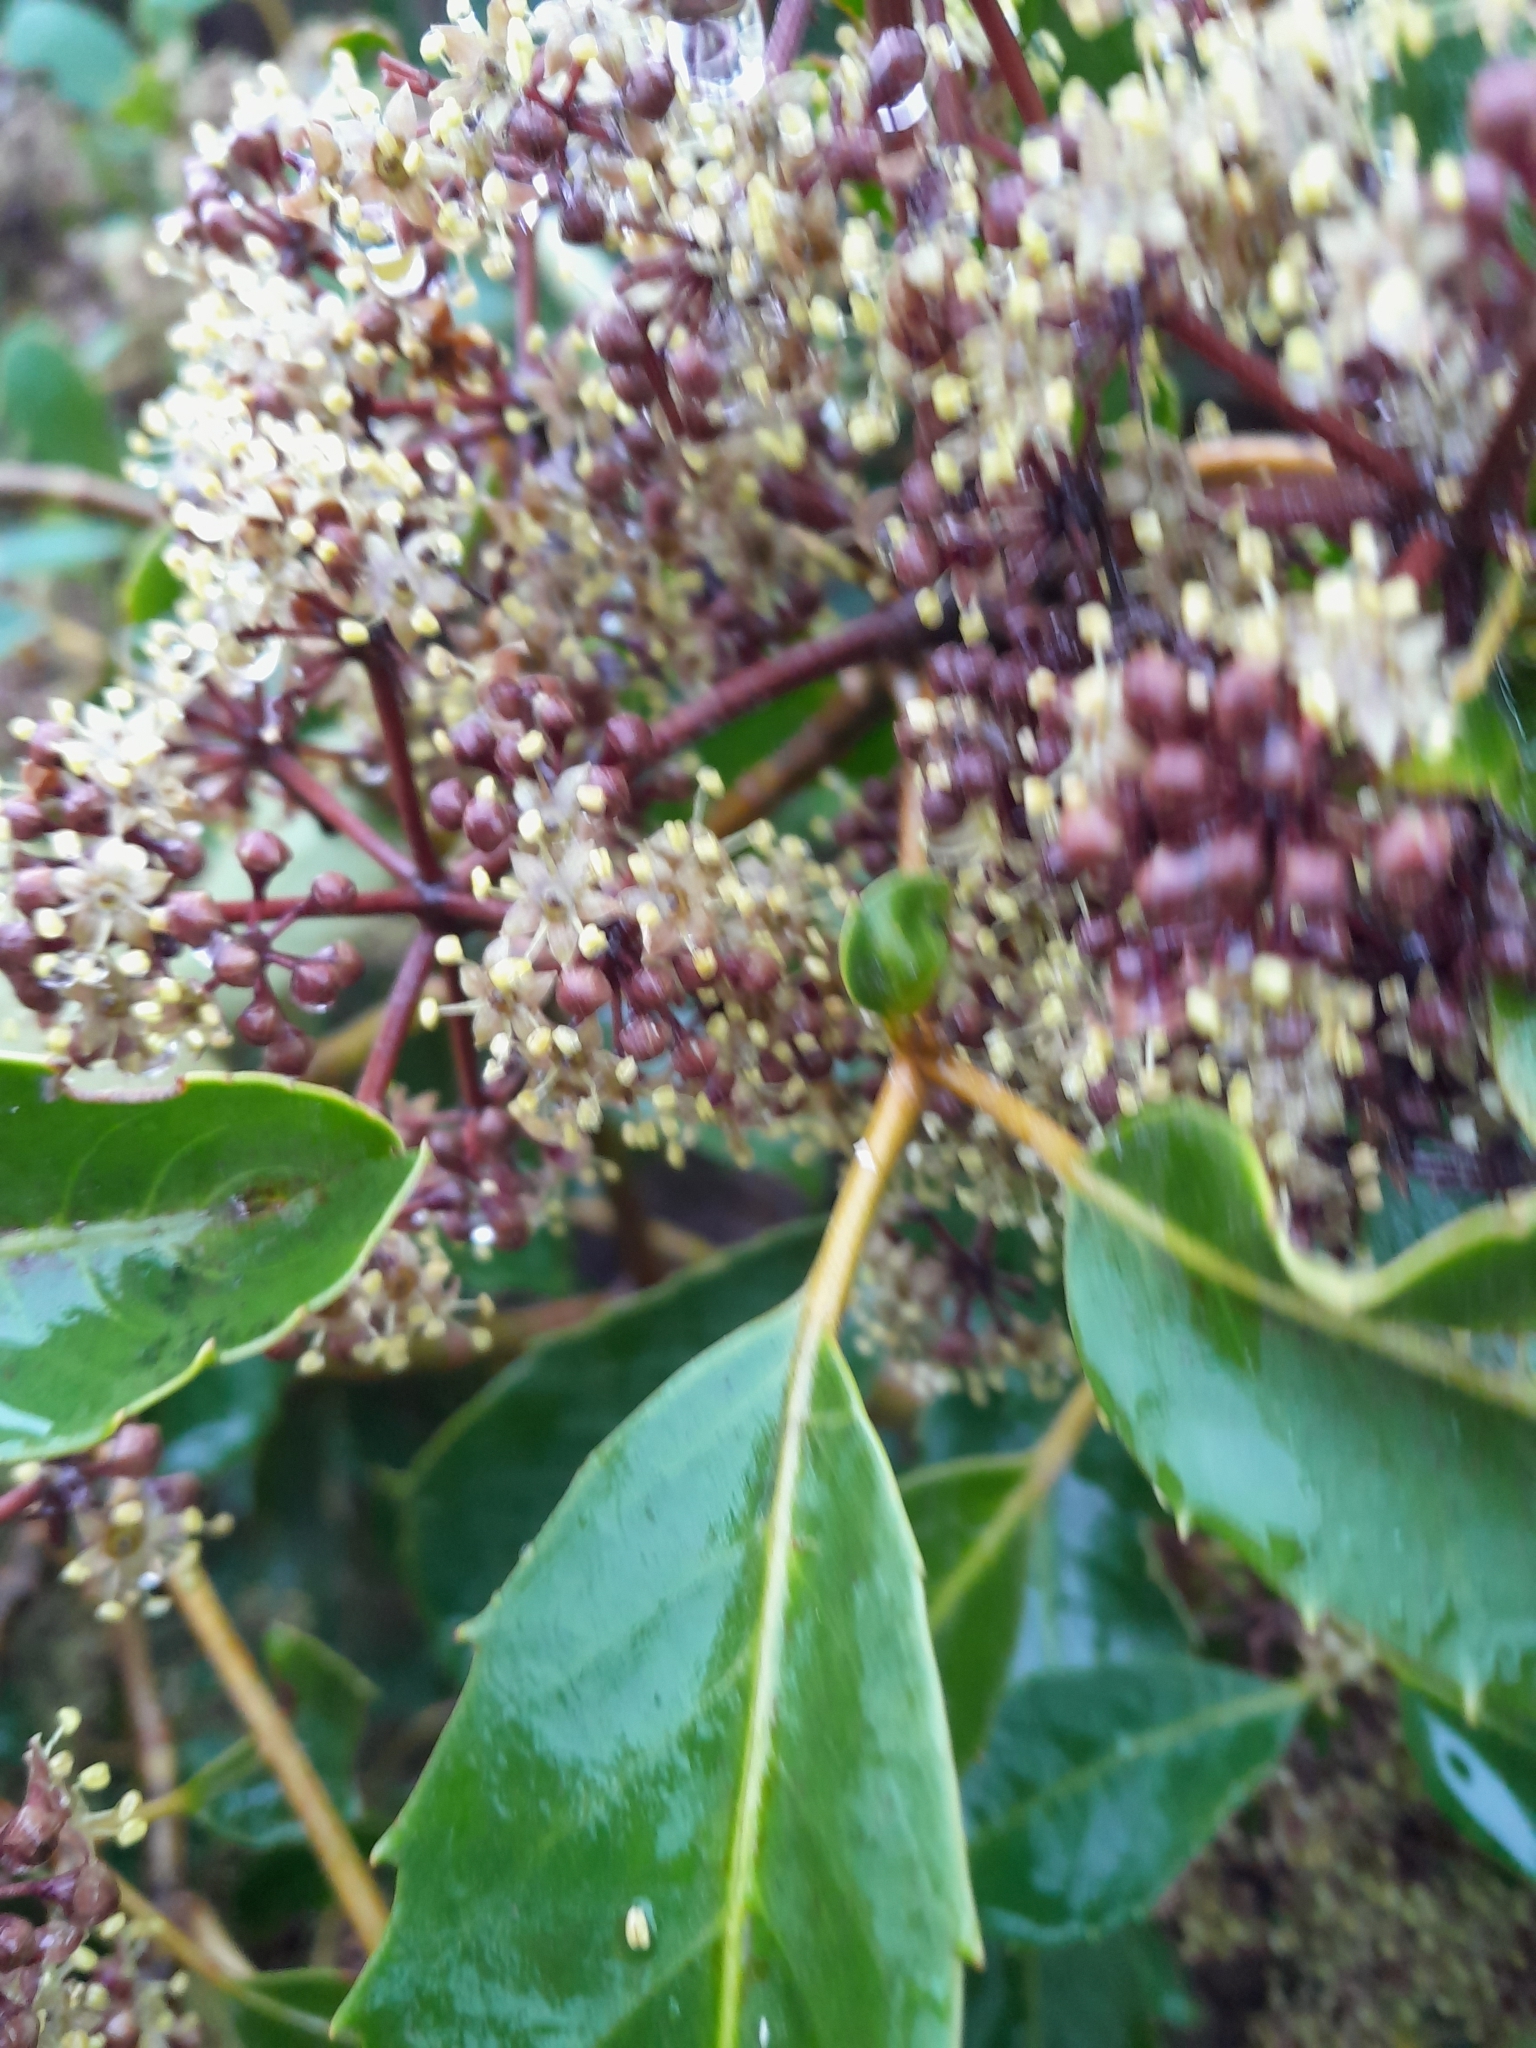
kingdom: Plantae
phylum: Tracheophyta
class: Magnoliopsida
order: Apiales
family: Araliaceae
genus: Neopanax
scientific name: Neopanax arboreus
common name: Five-fingers
